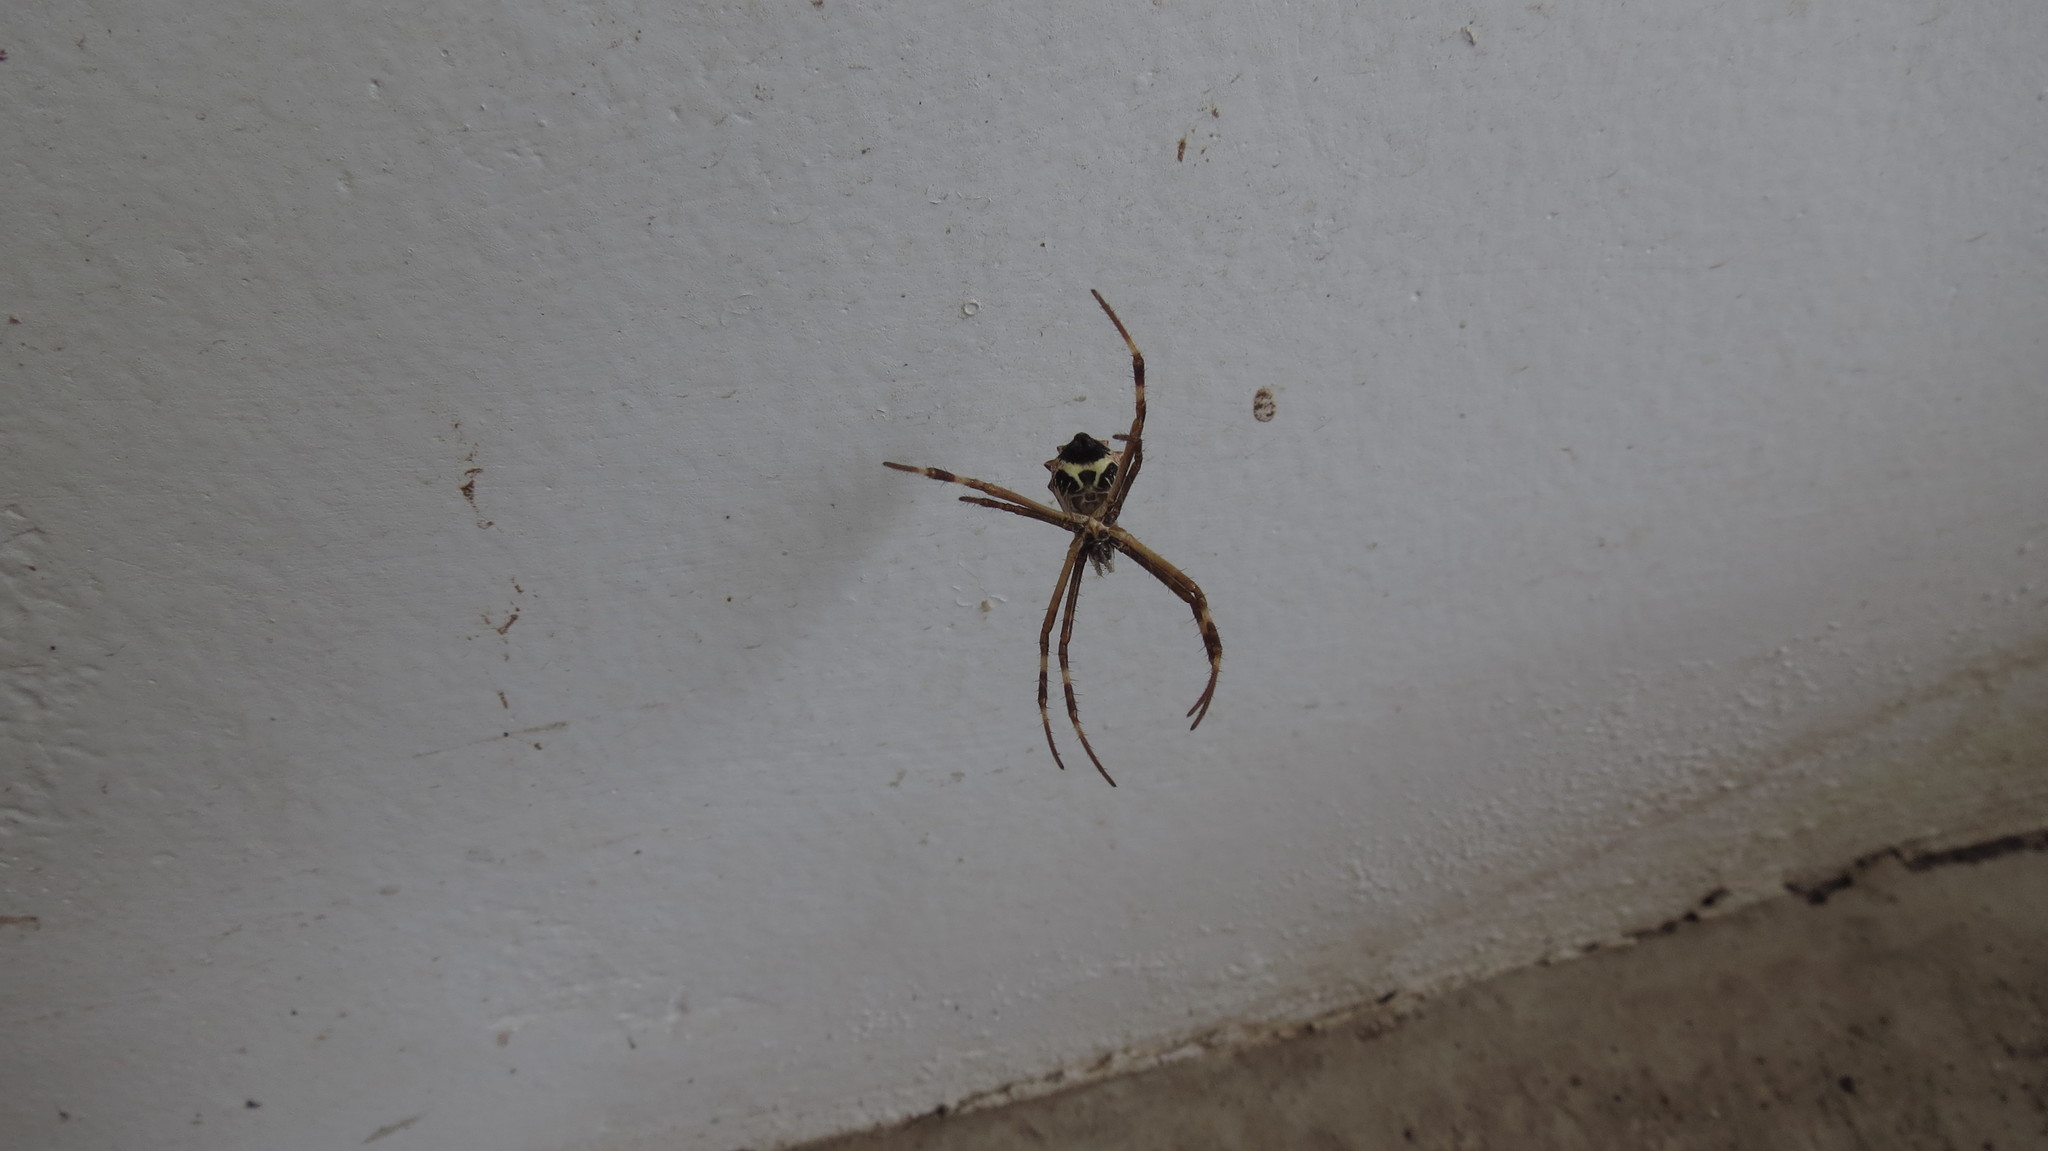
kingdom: Animalia
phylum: Arthropoda
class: Arachnida
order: Araneae
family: Araneidae
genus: Argiope
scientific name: Argiope argentata
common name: Orb weavers
